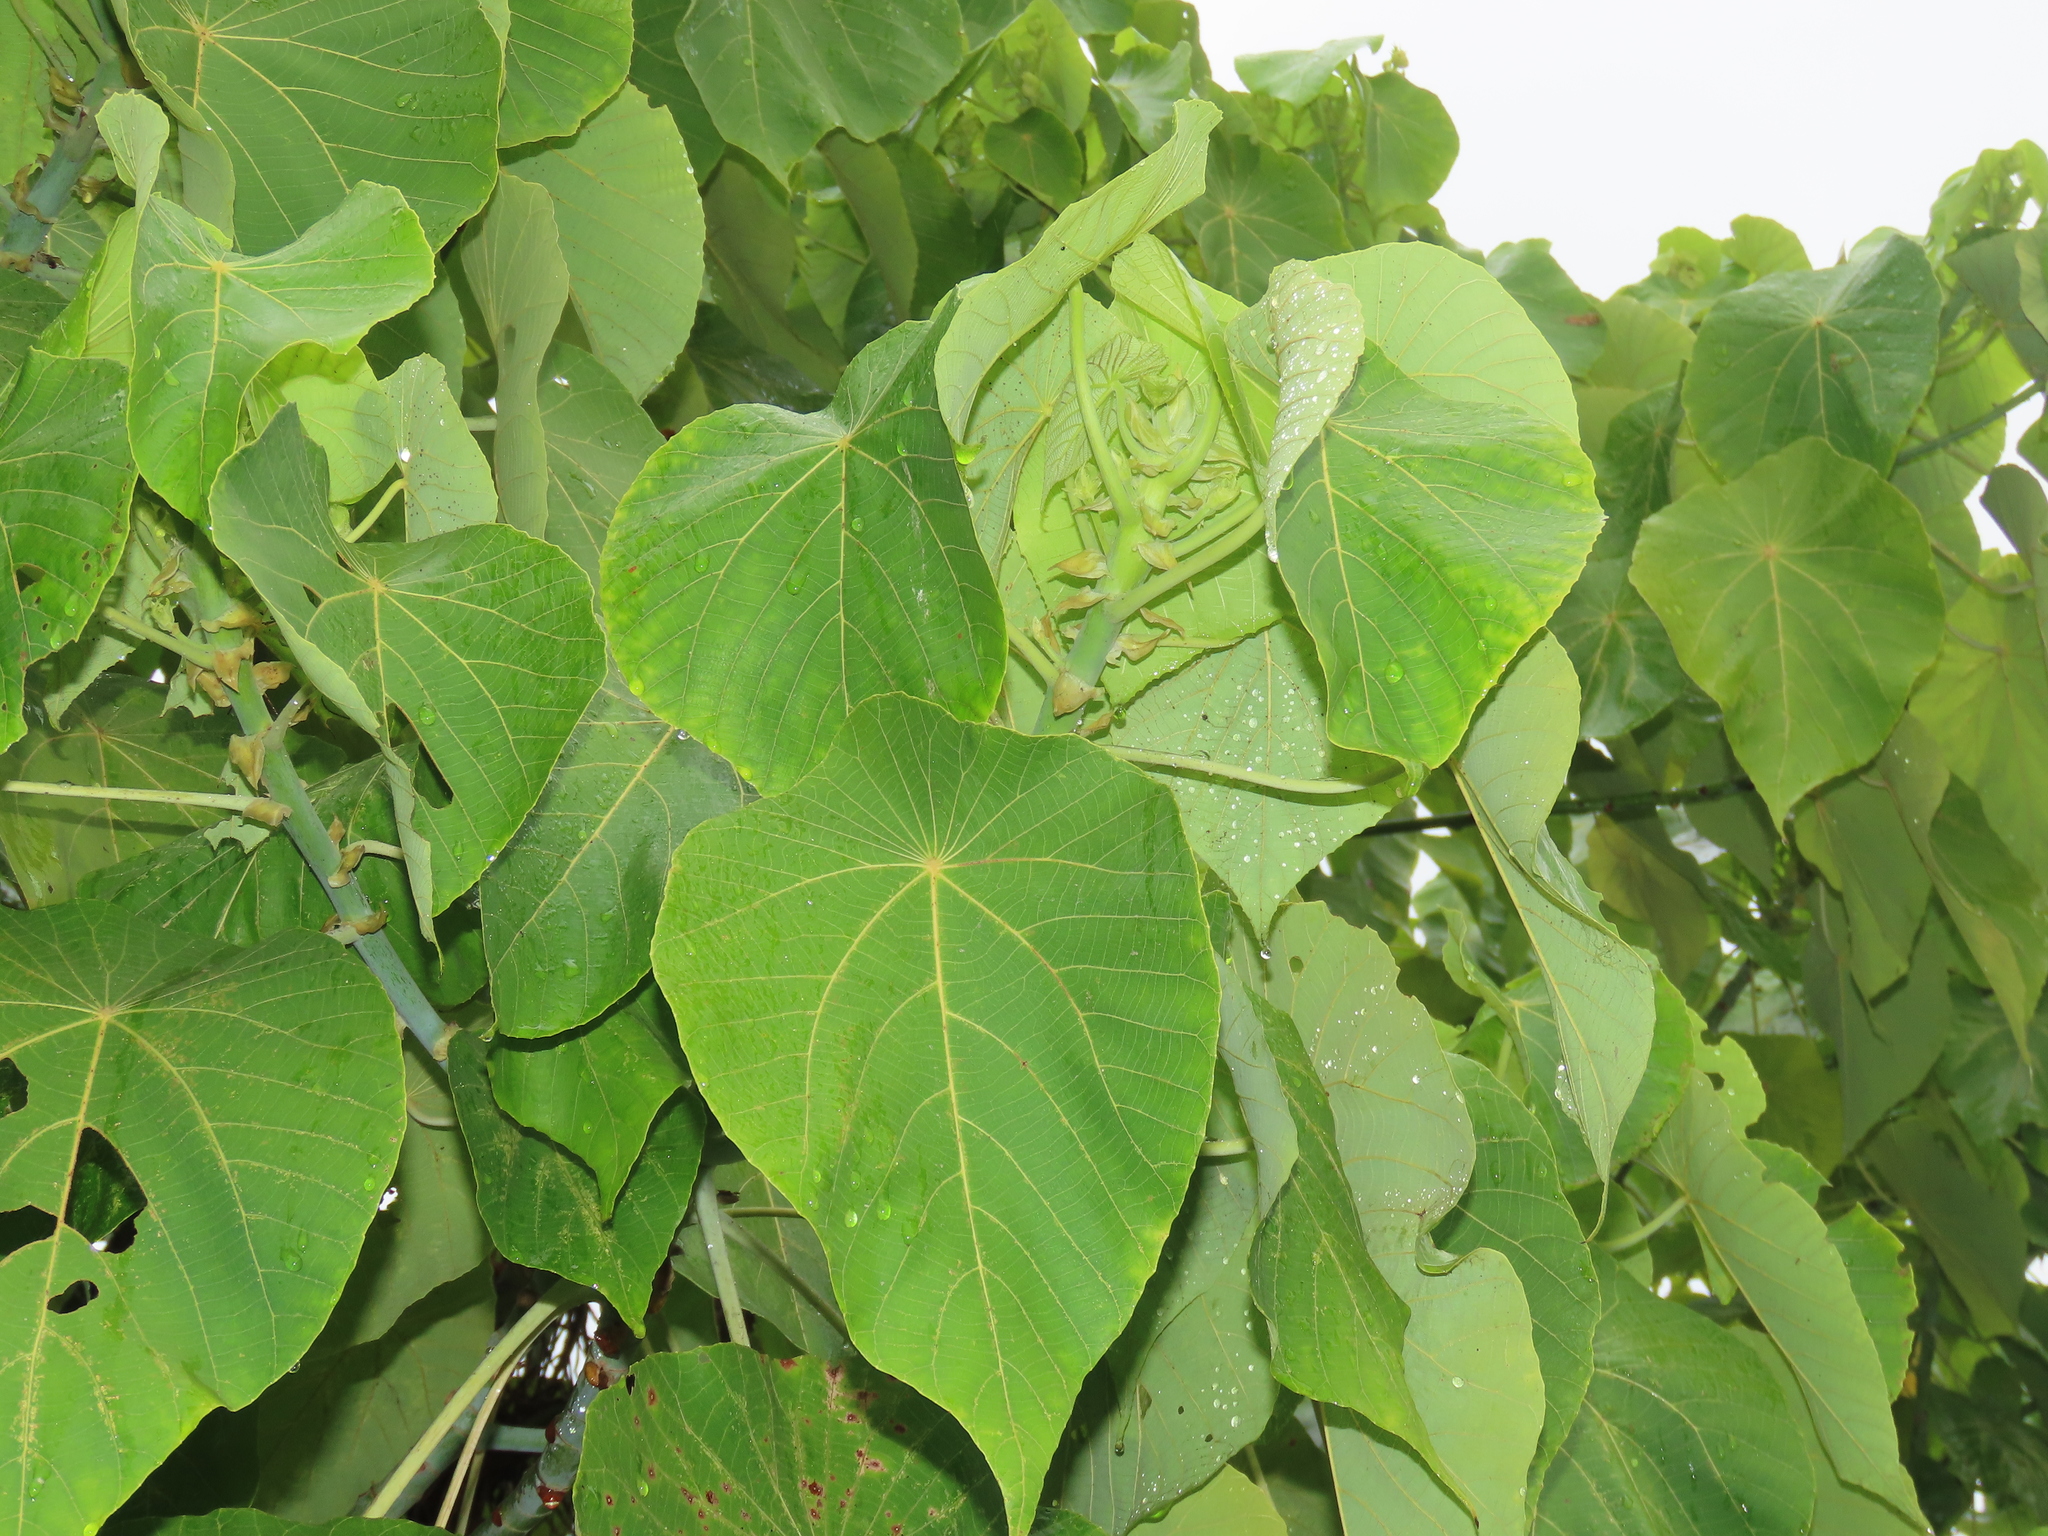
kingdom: Plantae
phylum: Tracheophyta
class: Magnoliopsida
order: Malpighiales
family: Euphorbiaceae
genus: Macaranga
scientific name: Macaranga tanarius
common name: Parasol leaf tree
